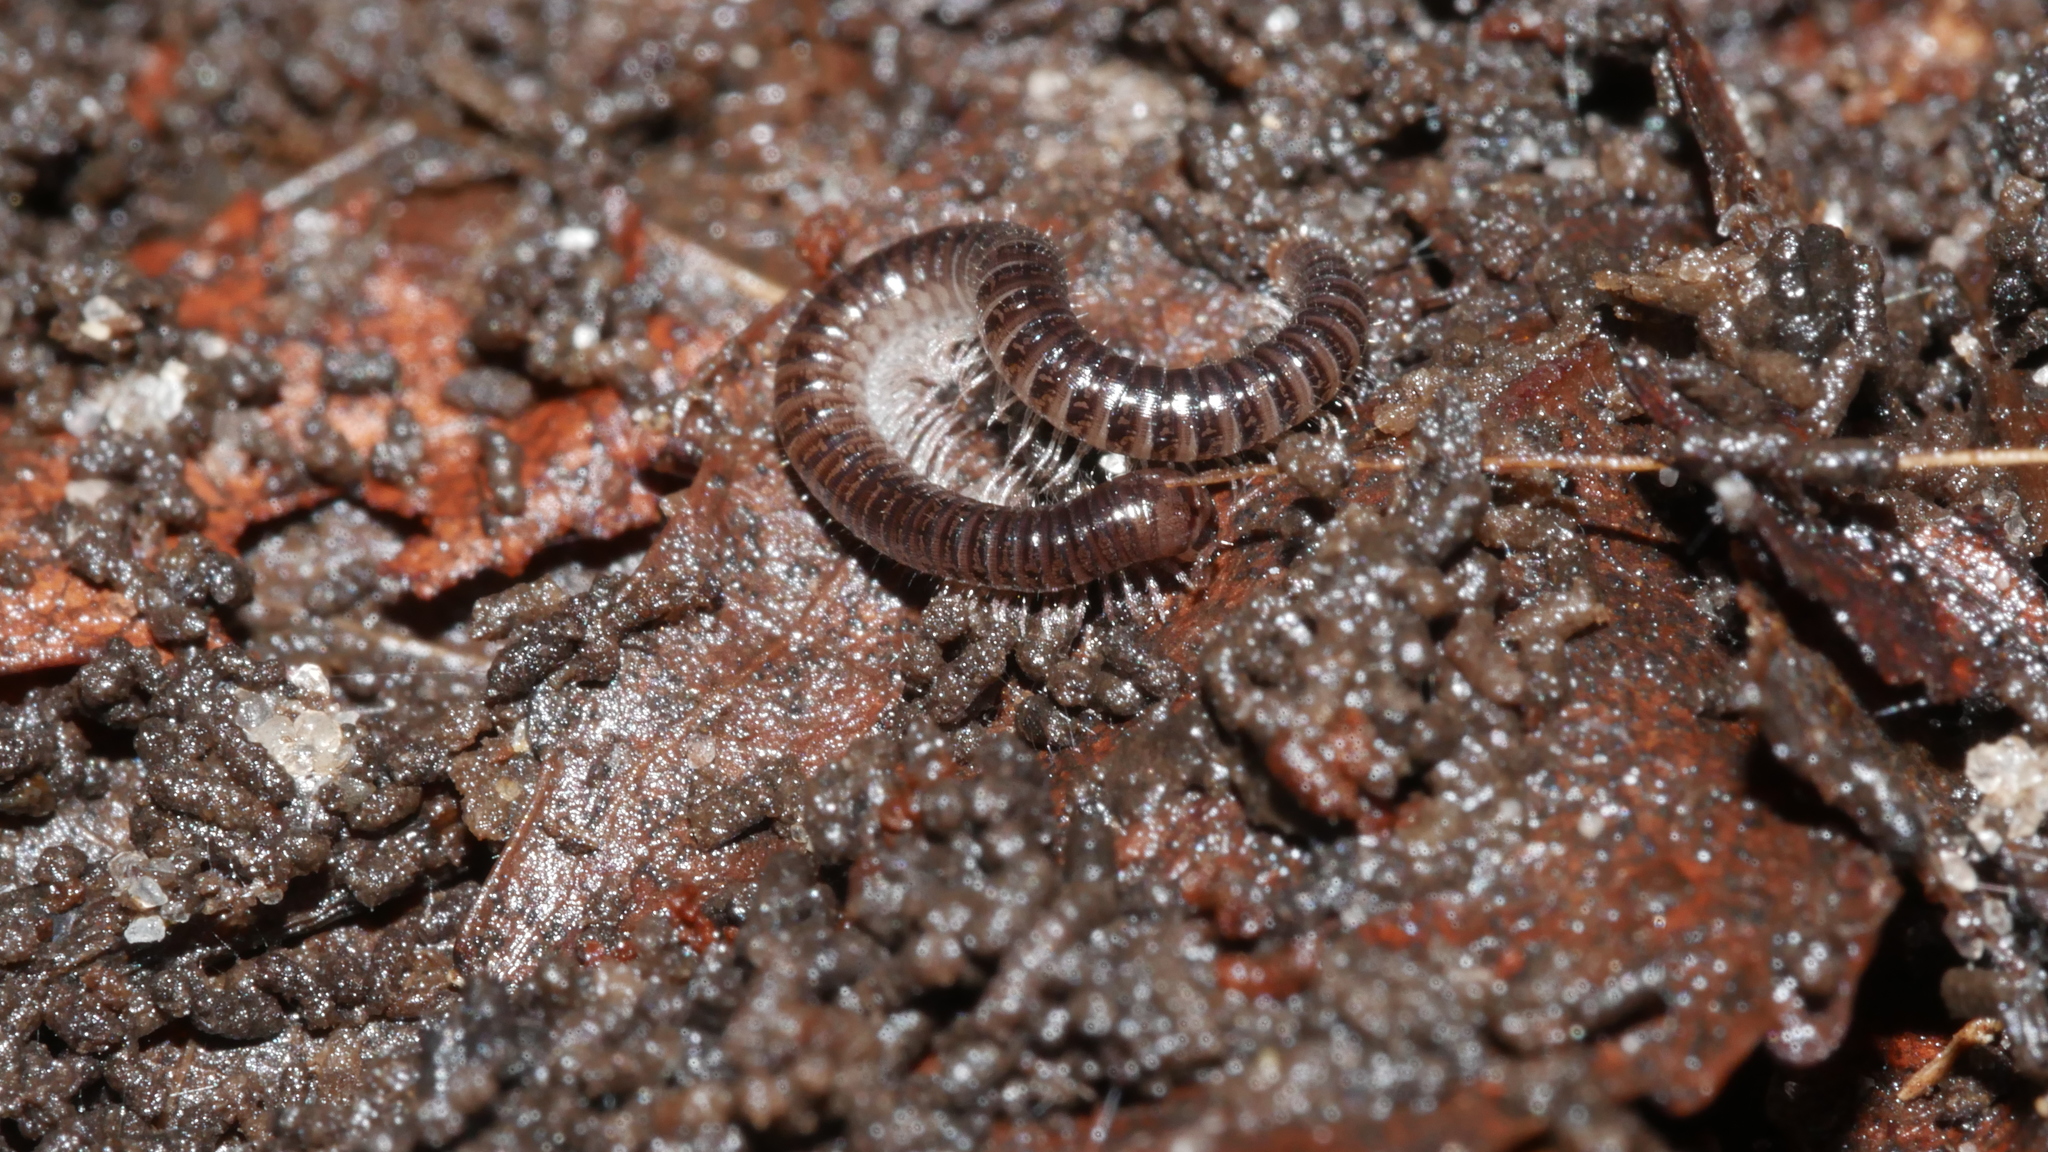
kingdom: Animalia
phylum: Arthropoda
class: Diplopoda
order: Julida
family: Julidae
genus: Ophyiulus
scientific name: Ophyiulus pilosus
